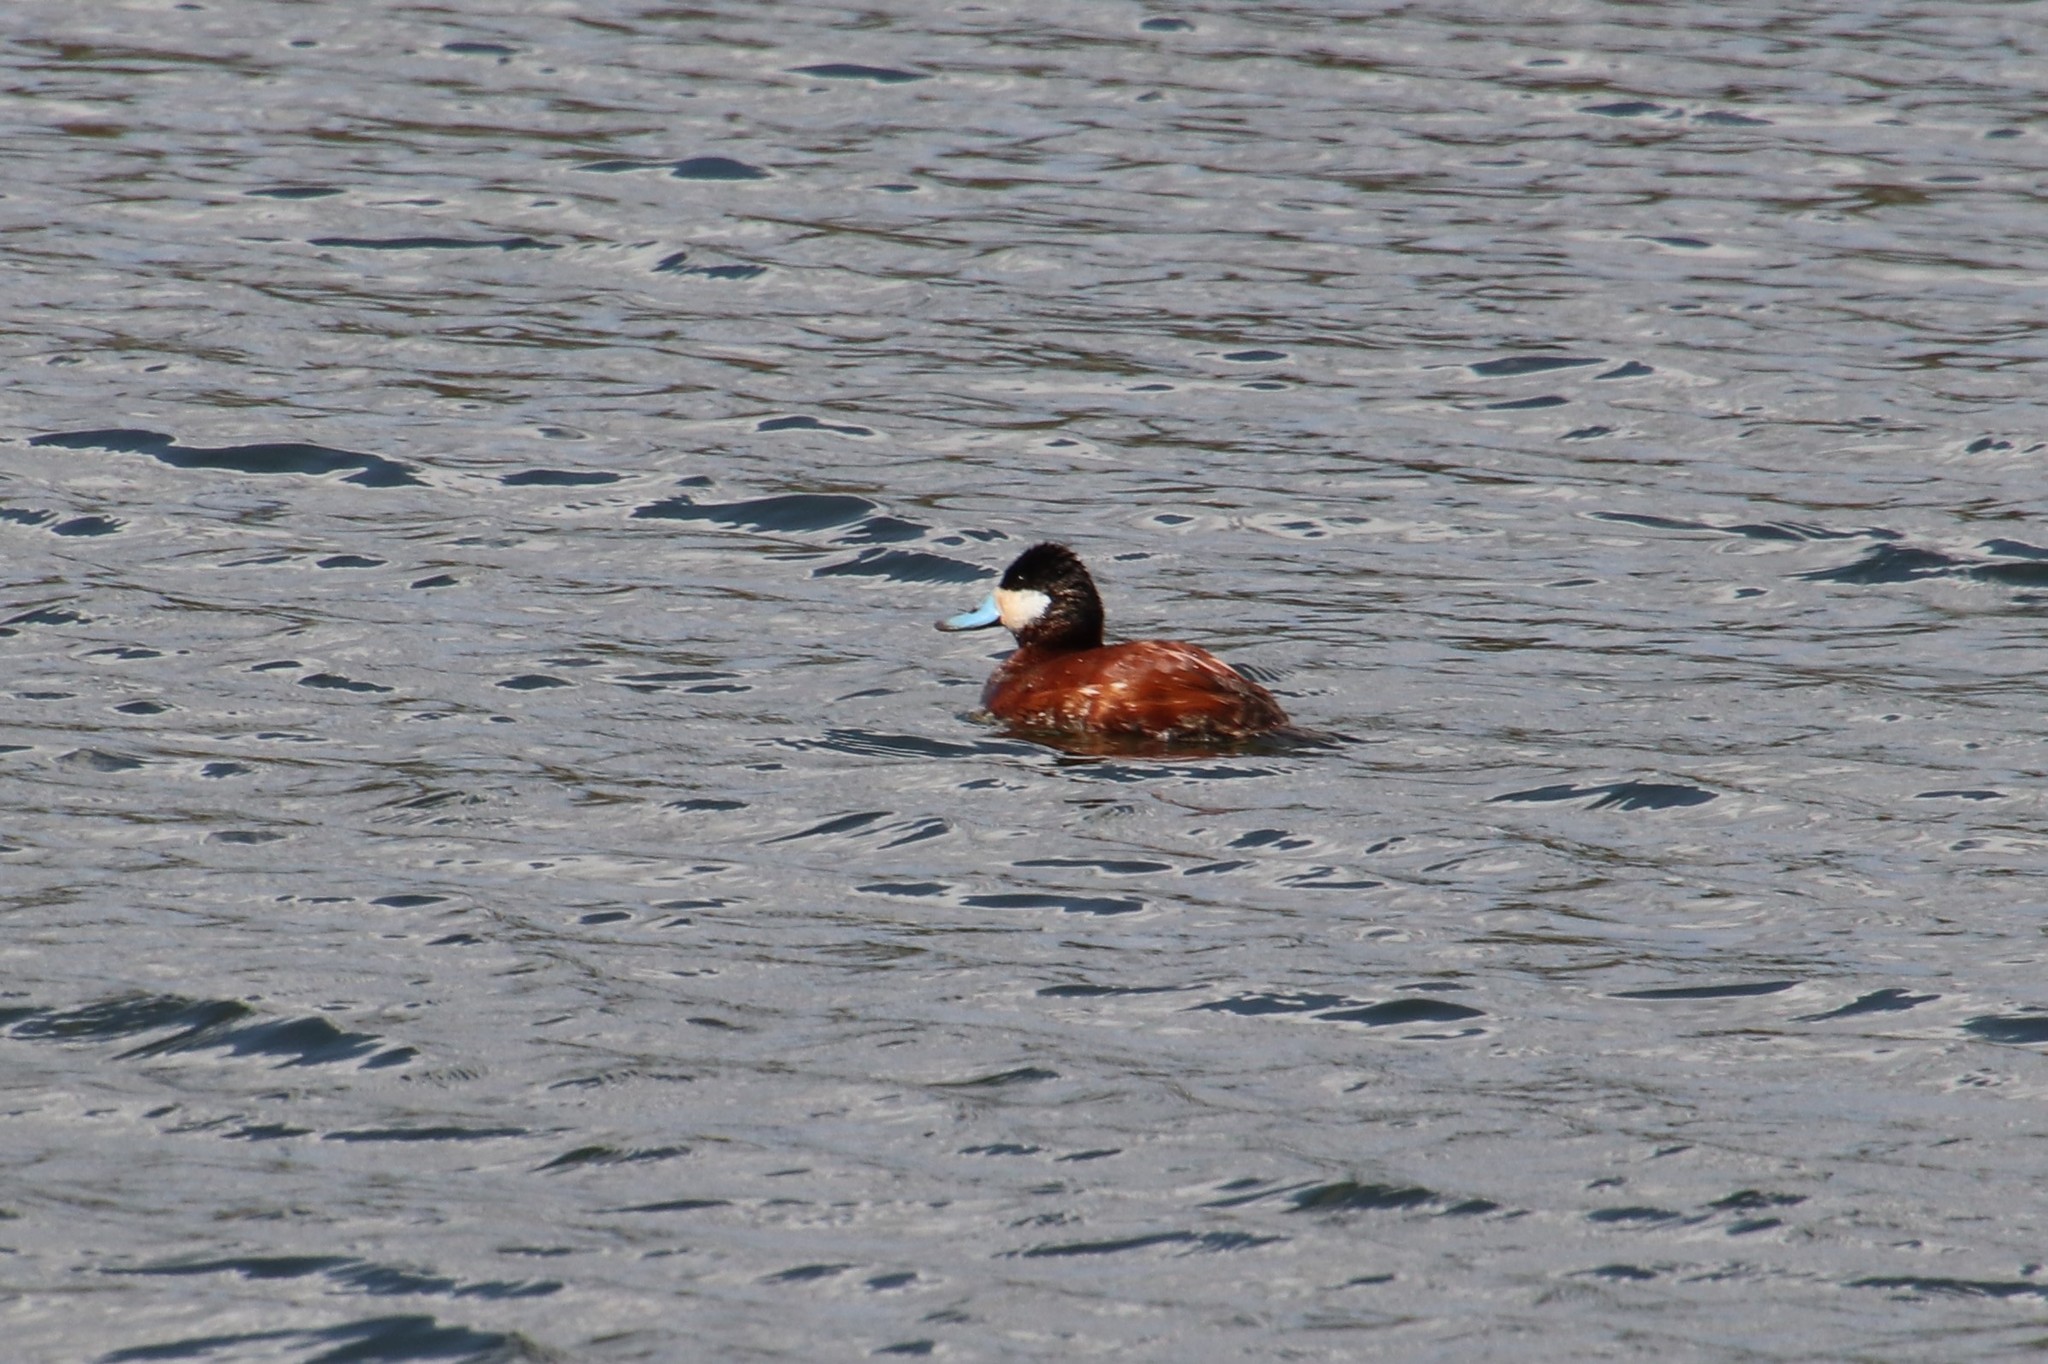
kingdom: Animalia
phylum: Chordata
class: Aves
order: Anseriformes
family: Anatidae
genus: Oxyura
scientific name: Oxyura jamaicensis
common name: Ruddy duck
